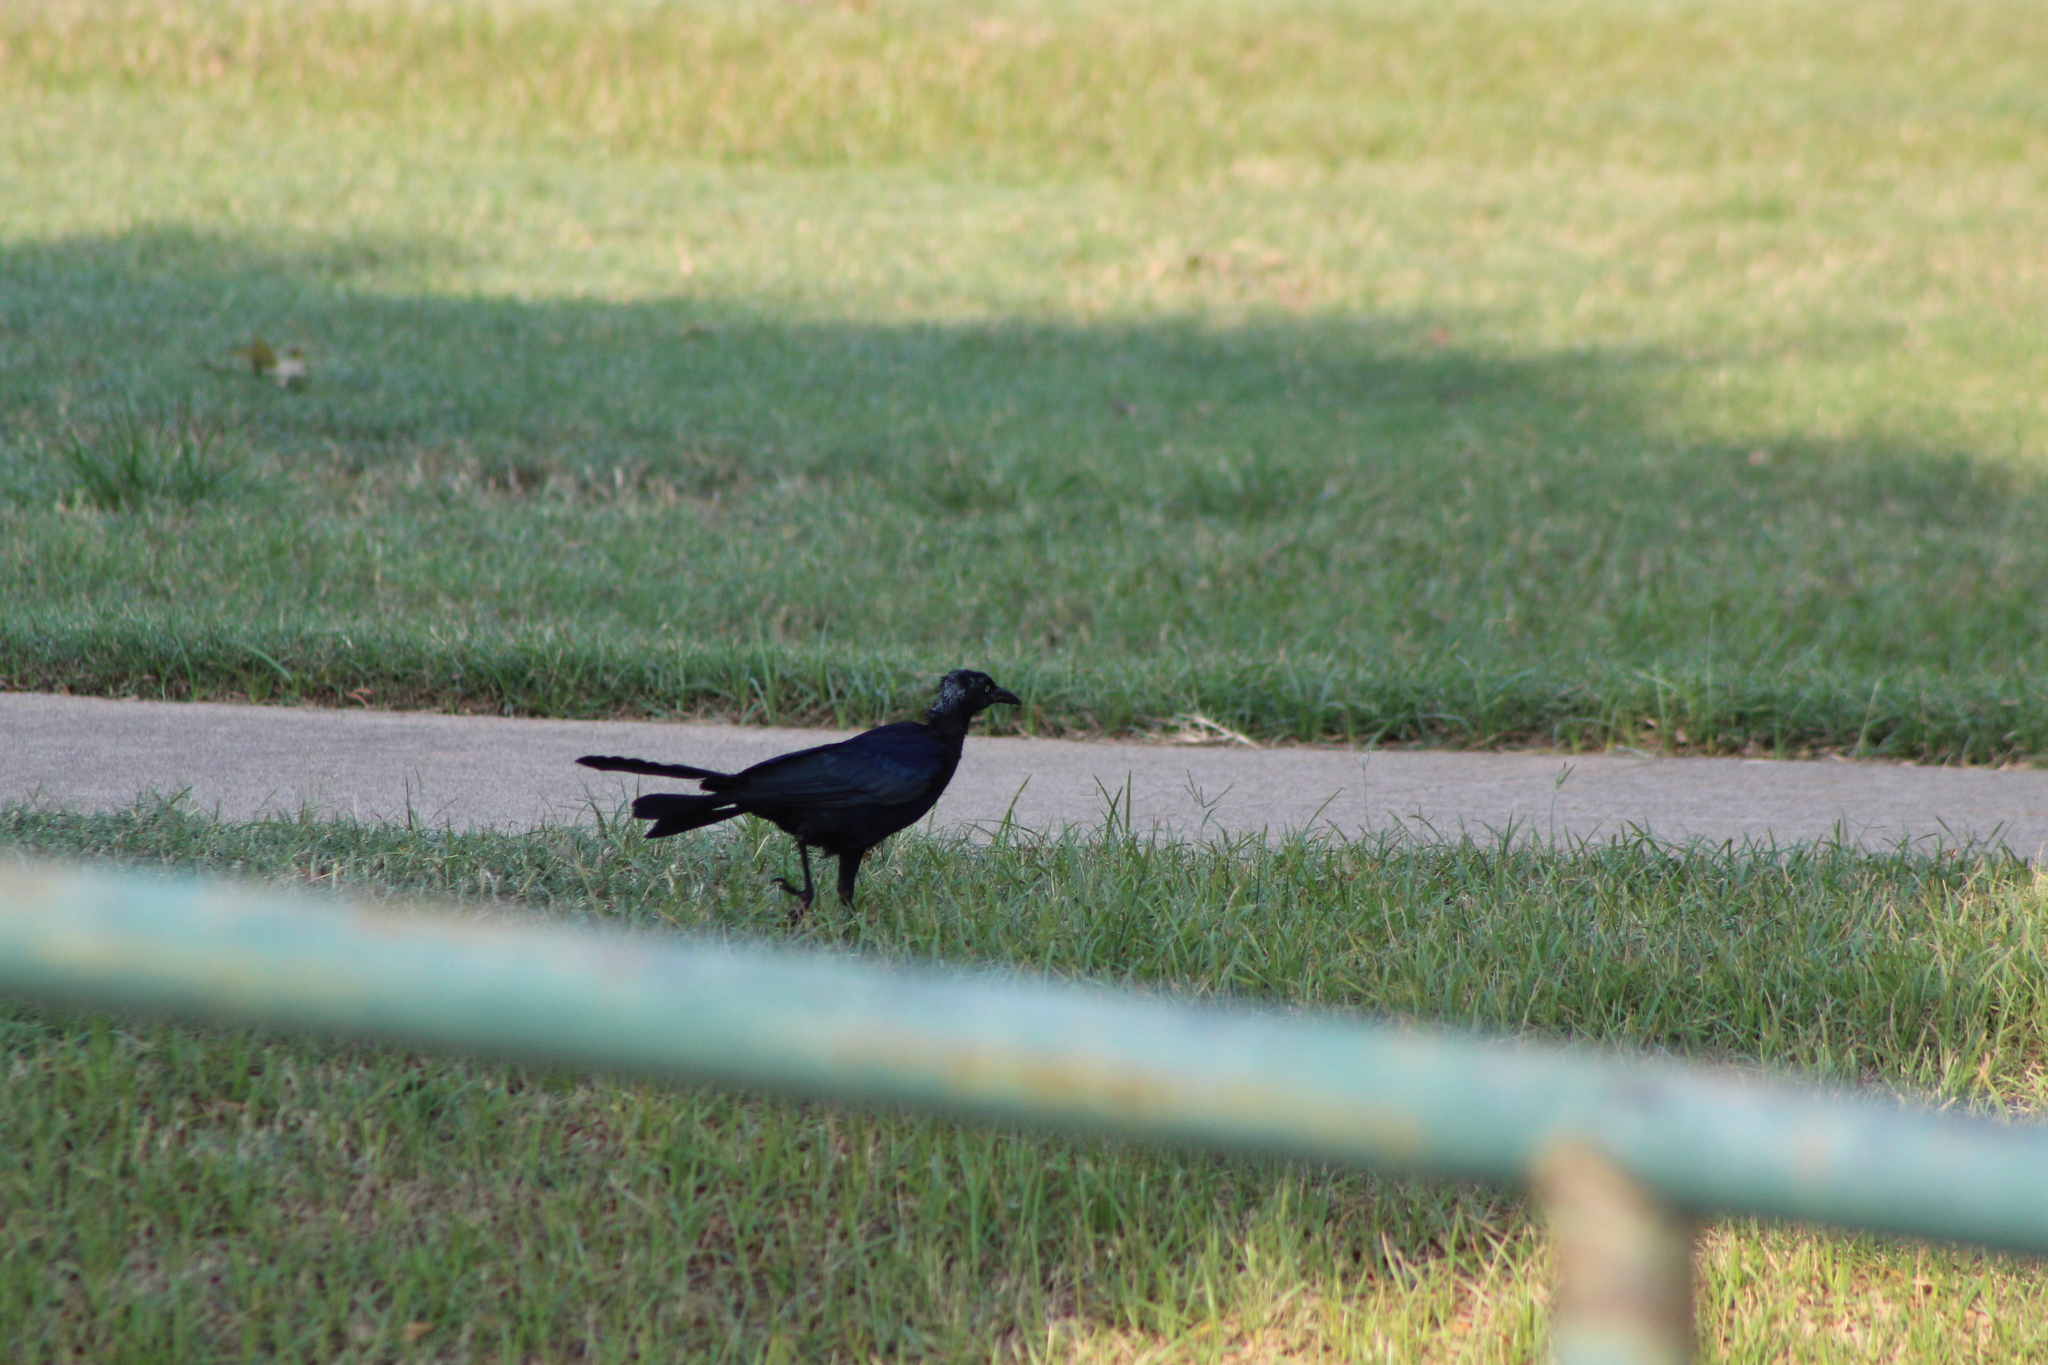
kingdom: Animalia
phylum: Chordata
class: Aves
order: Passeriformes
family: Icteridae
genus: Quiscalus
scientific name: Quiscalus mexicanus
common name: Great-tailed grackle
